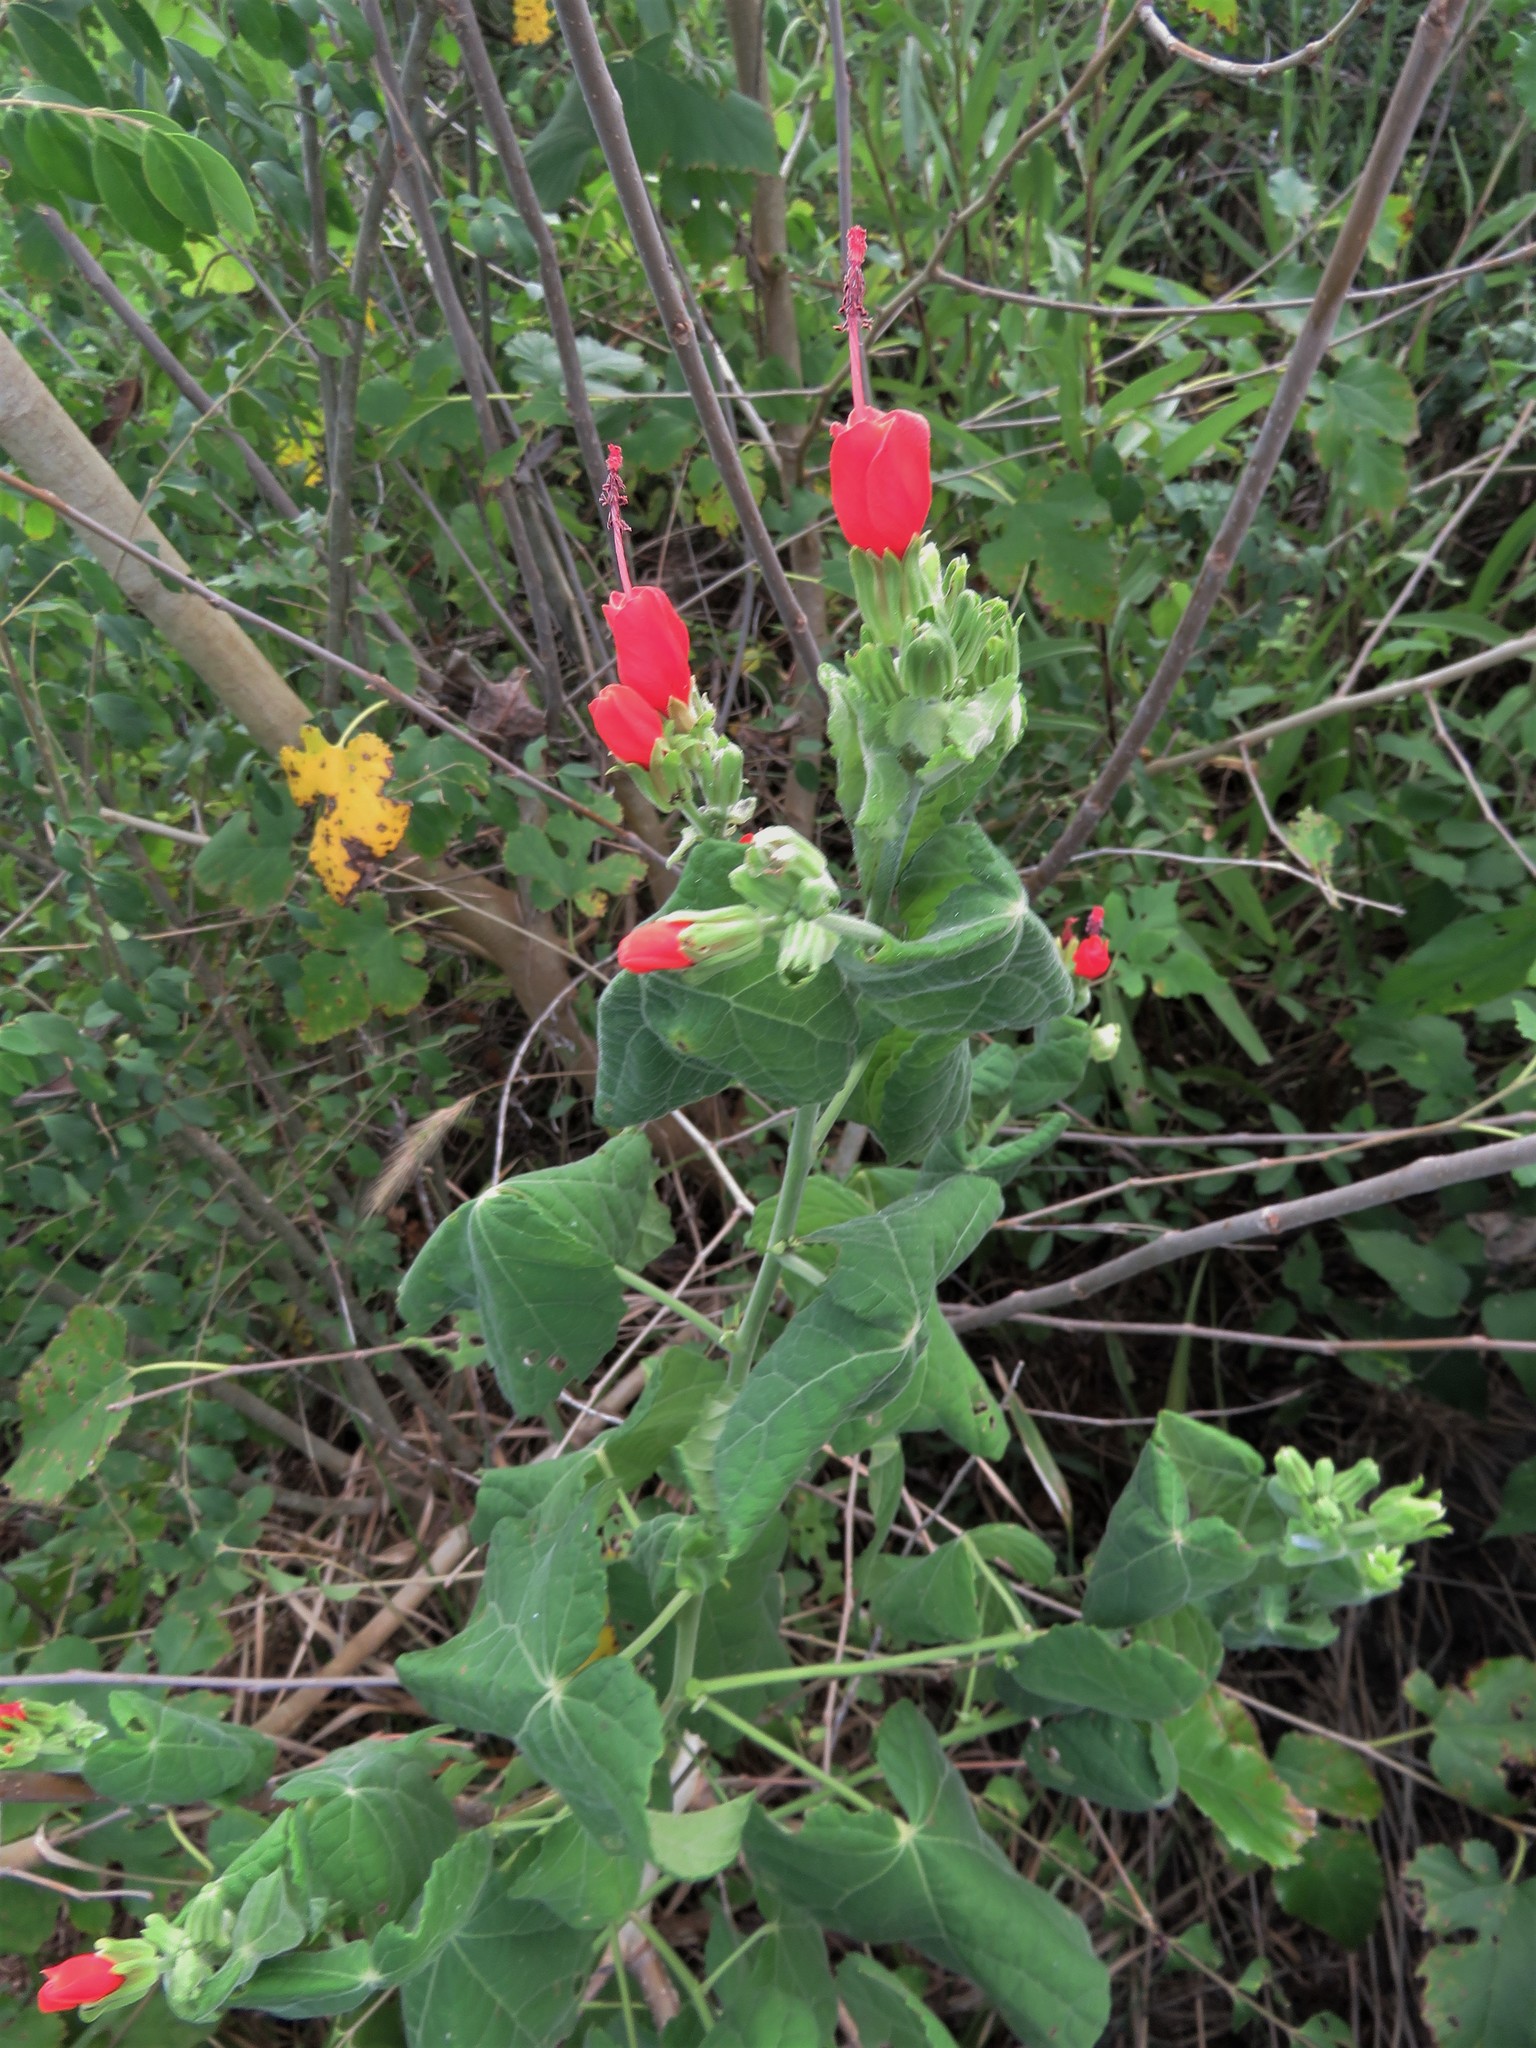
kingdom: Plantae
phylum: Tracheophyta
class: Magnoliopsida
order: Malvales
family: Malvaceae
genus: Malvaviscus
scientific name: Malvaviscus arboreus
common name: Wax mallow
